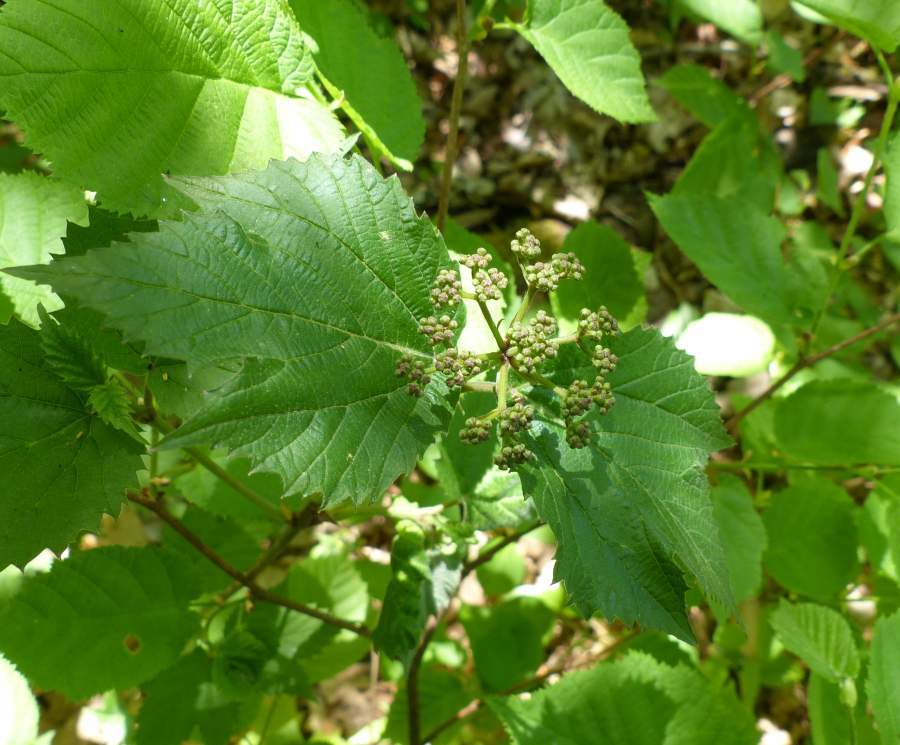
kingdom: Plantae
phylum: Tracheophyta
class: Magnoliopsida
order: Dipsacales
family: Viburnaceae
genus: Viburnum
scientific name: Viburnum acerifolium
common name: Dockmackie
